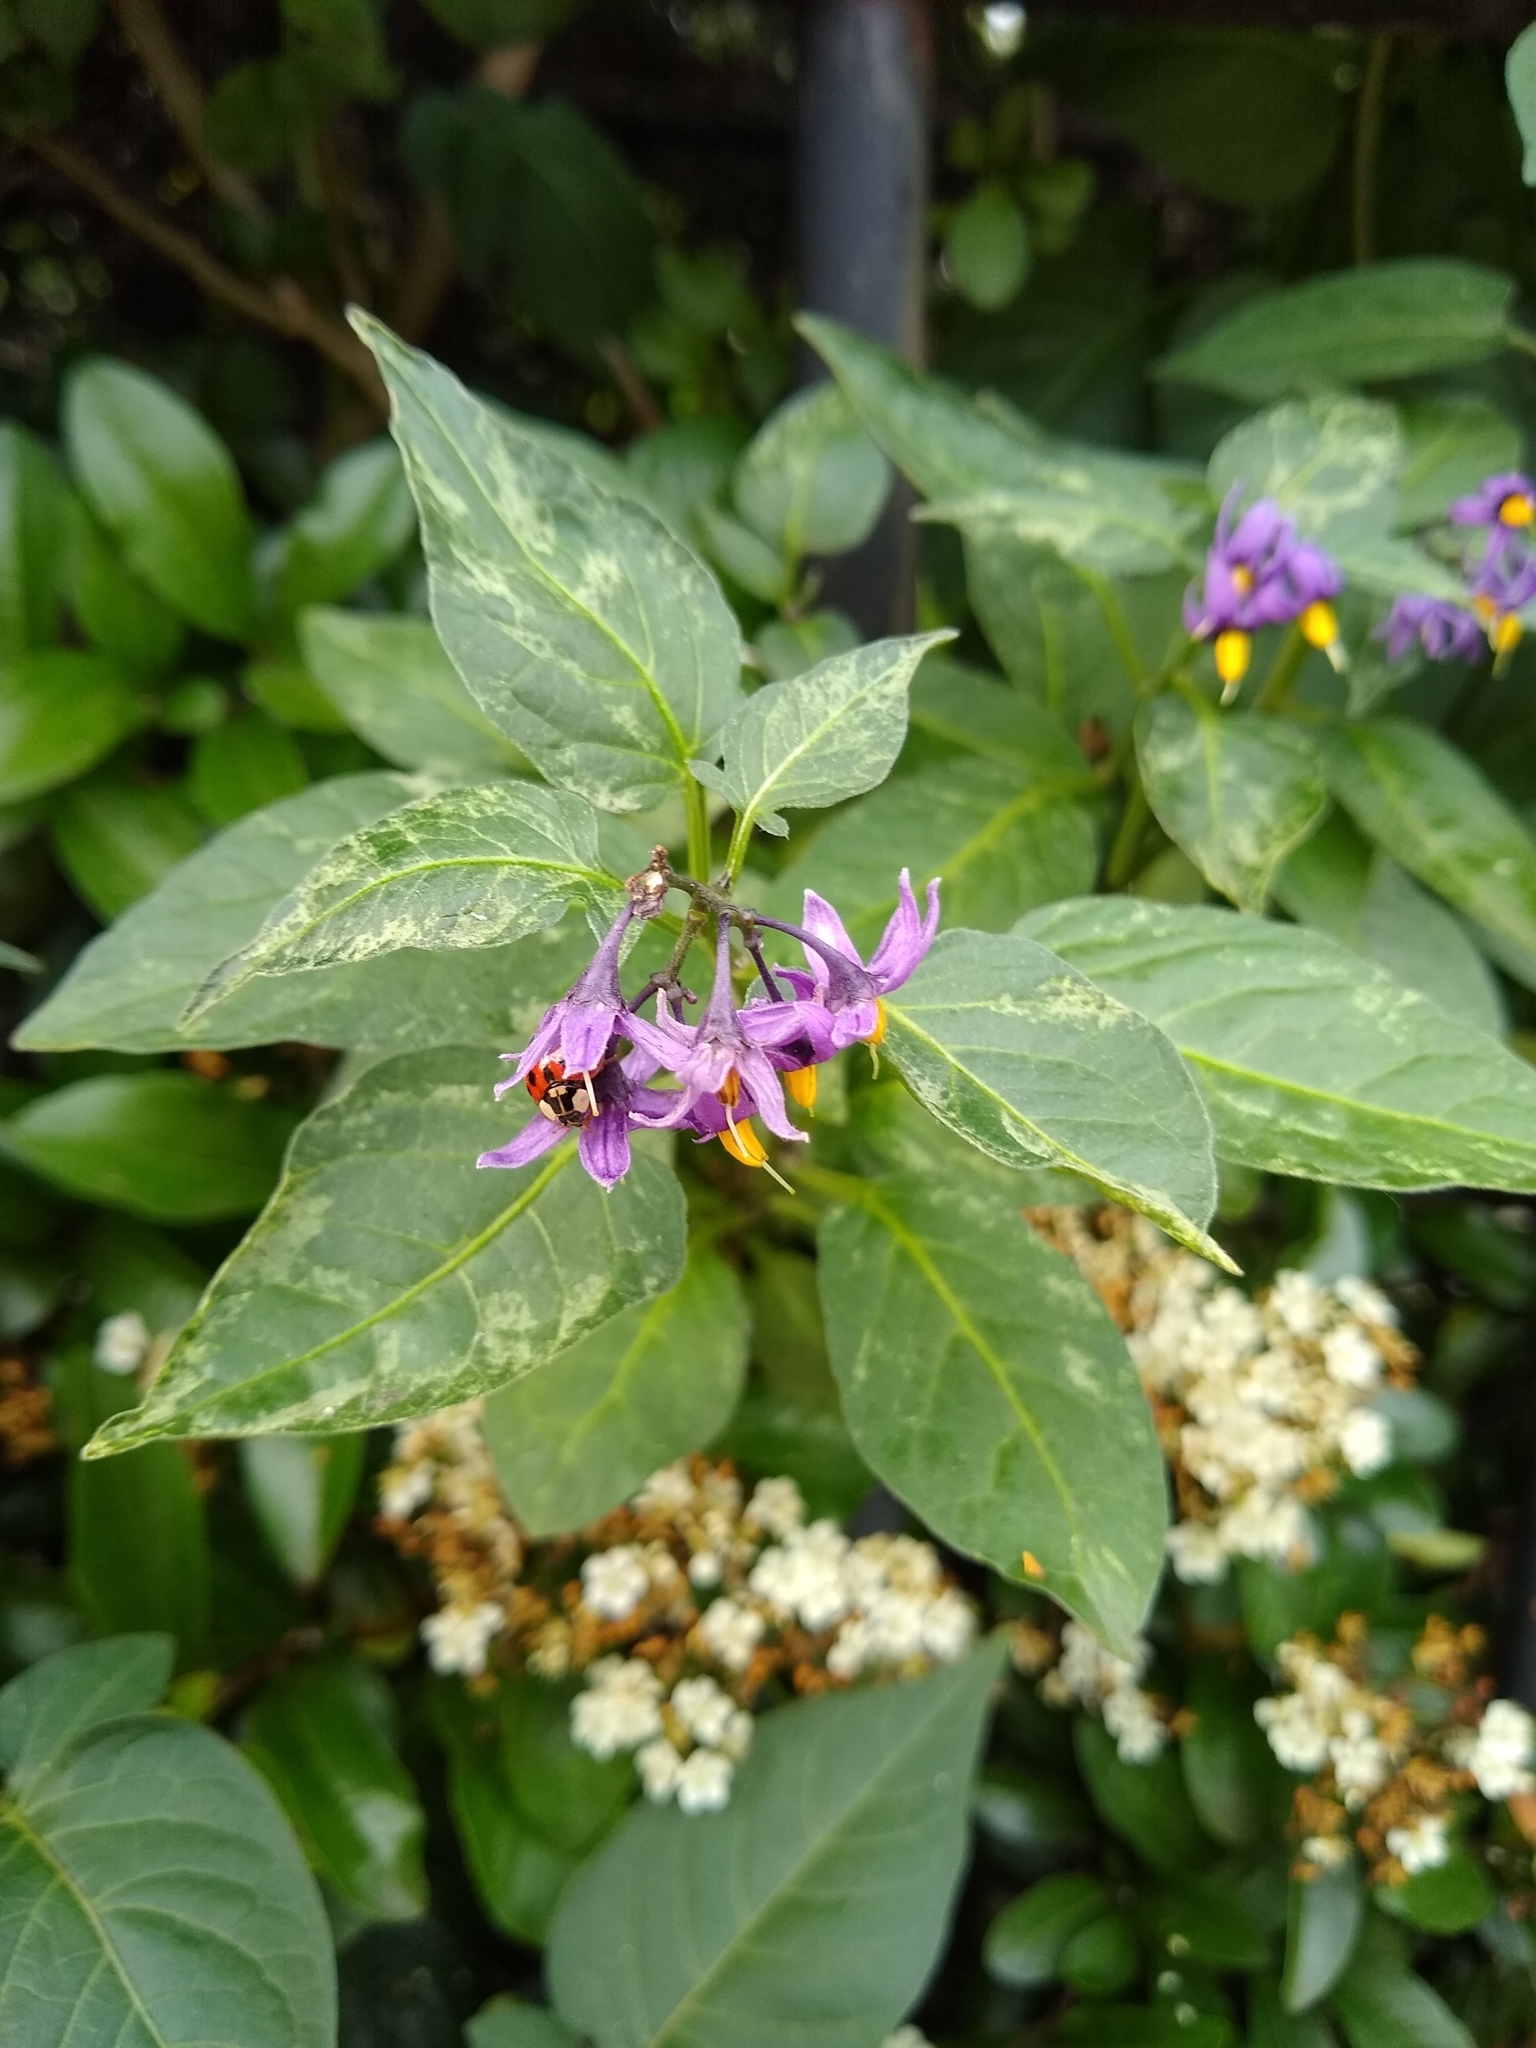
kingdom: Plantae
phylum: Tracheophyta
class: Magnoliopsida
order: Solanales
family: Solanaceae
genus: Solanum
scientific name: Solanum dulcamara
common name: Climbing nightshade
